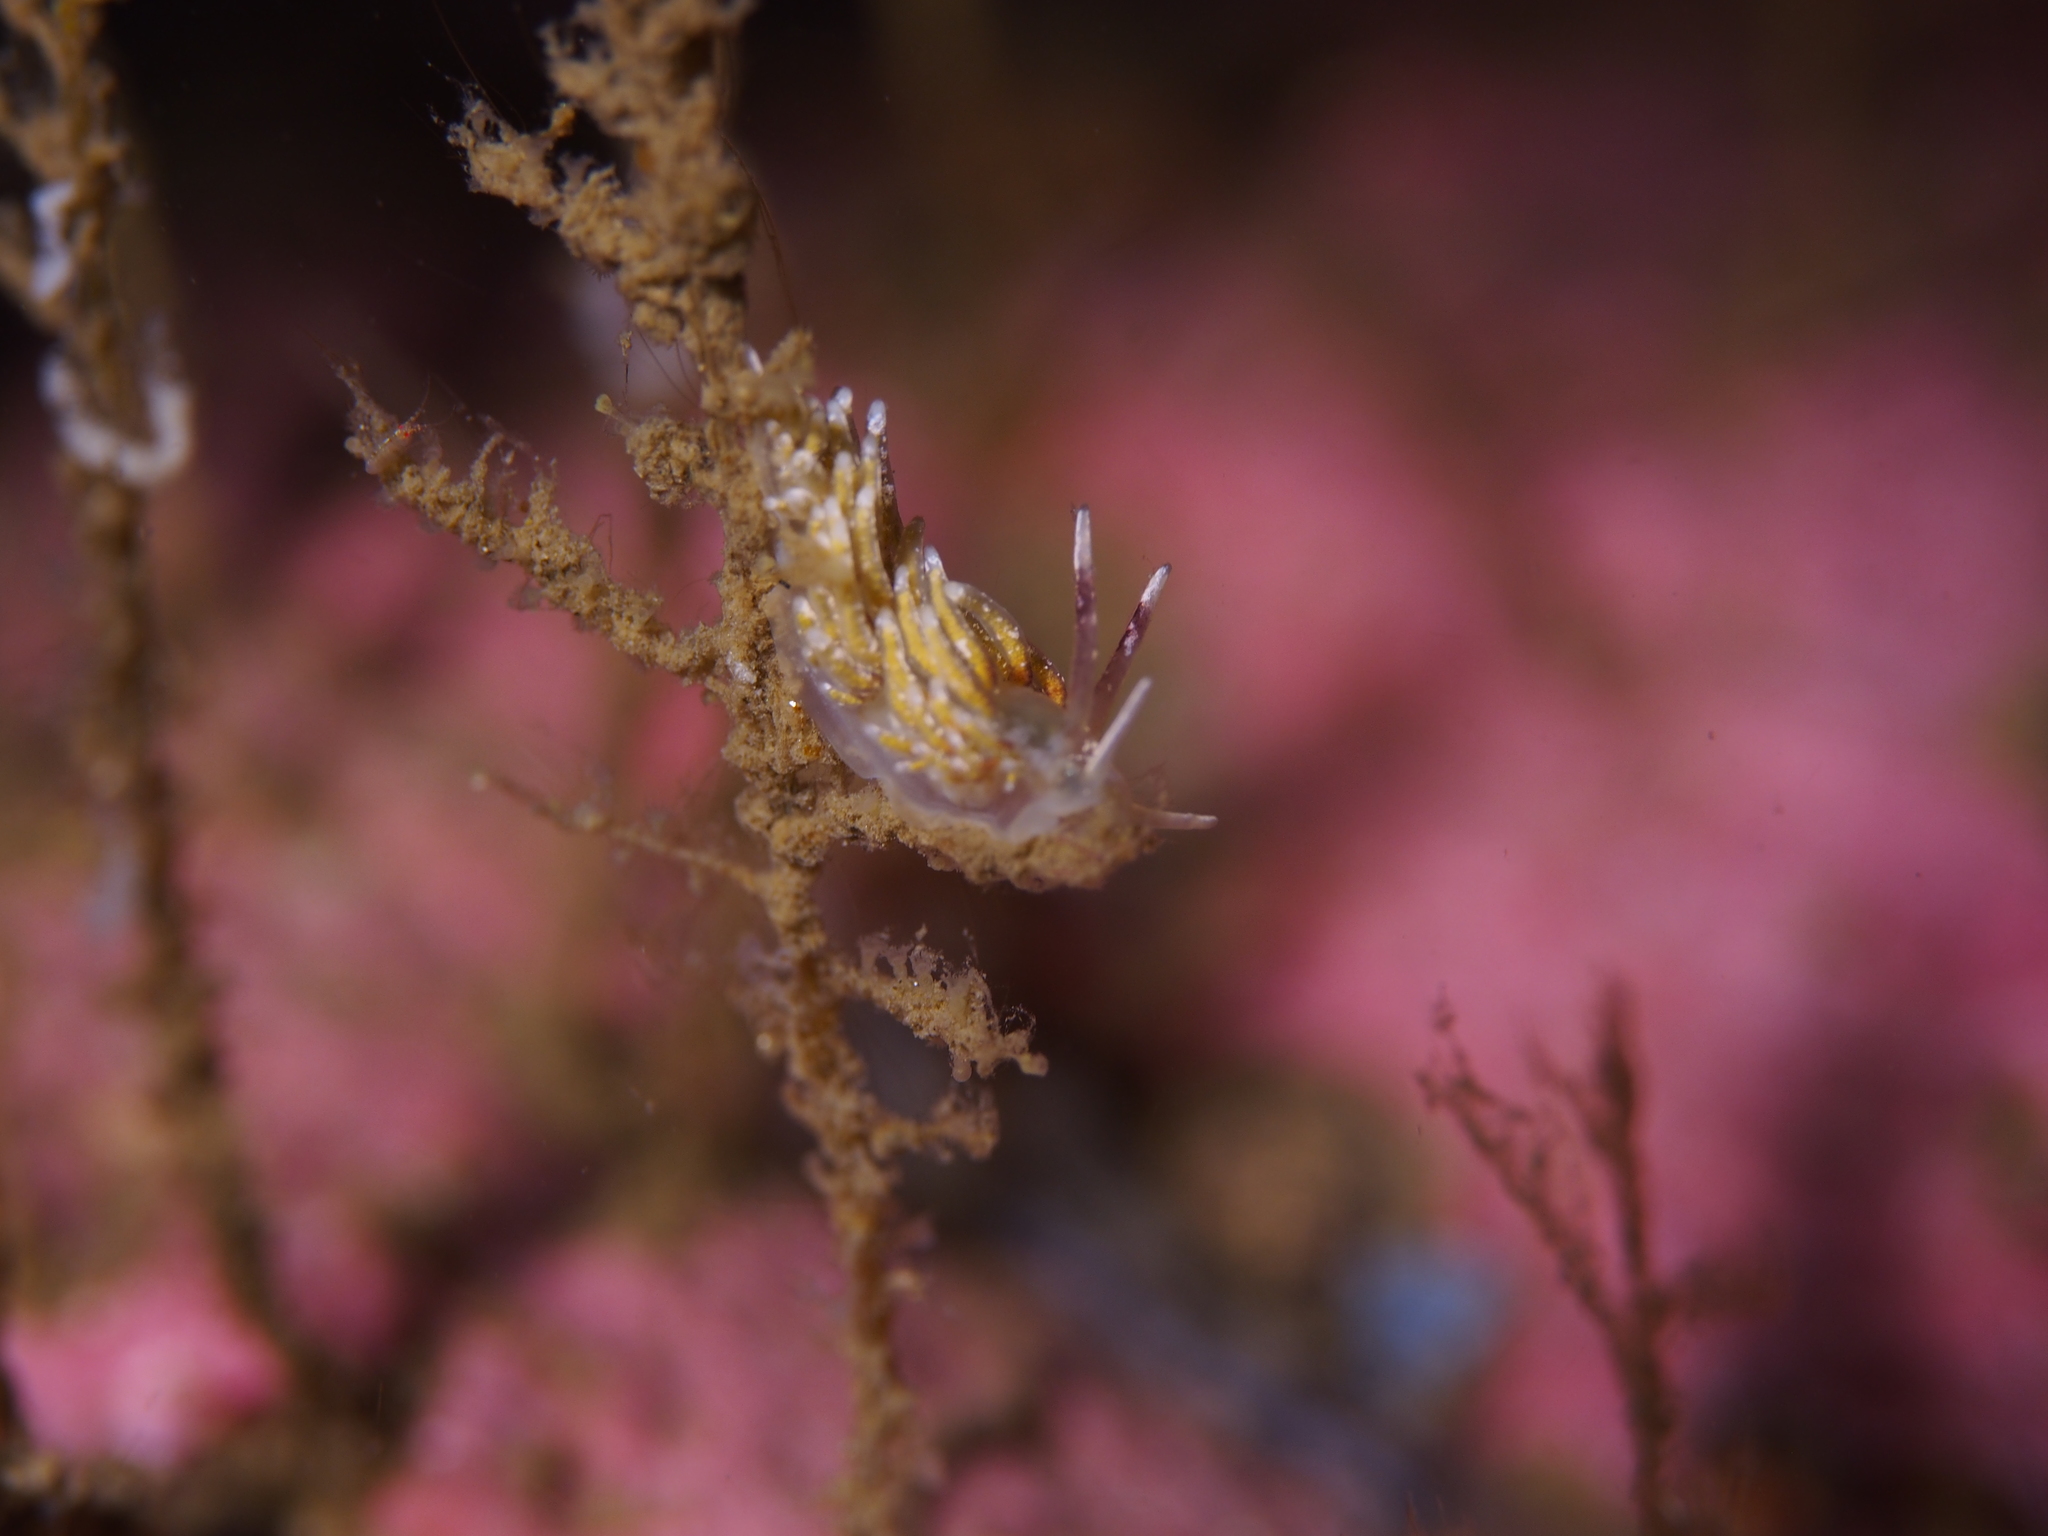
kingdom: Animalia
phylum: Mollusca
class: Gastropoda
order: Nudibranchia
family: Trinchesiidae
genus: Rubramoena
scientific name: Rubramoena rubescens
